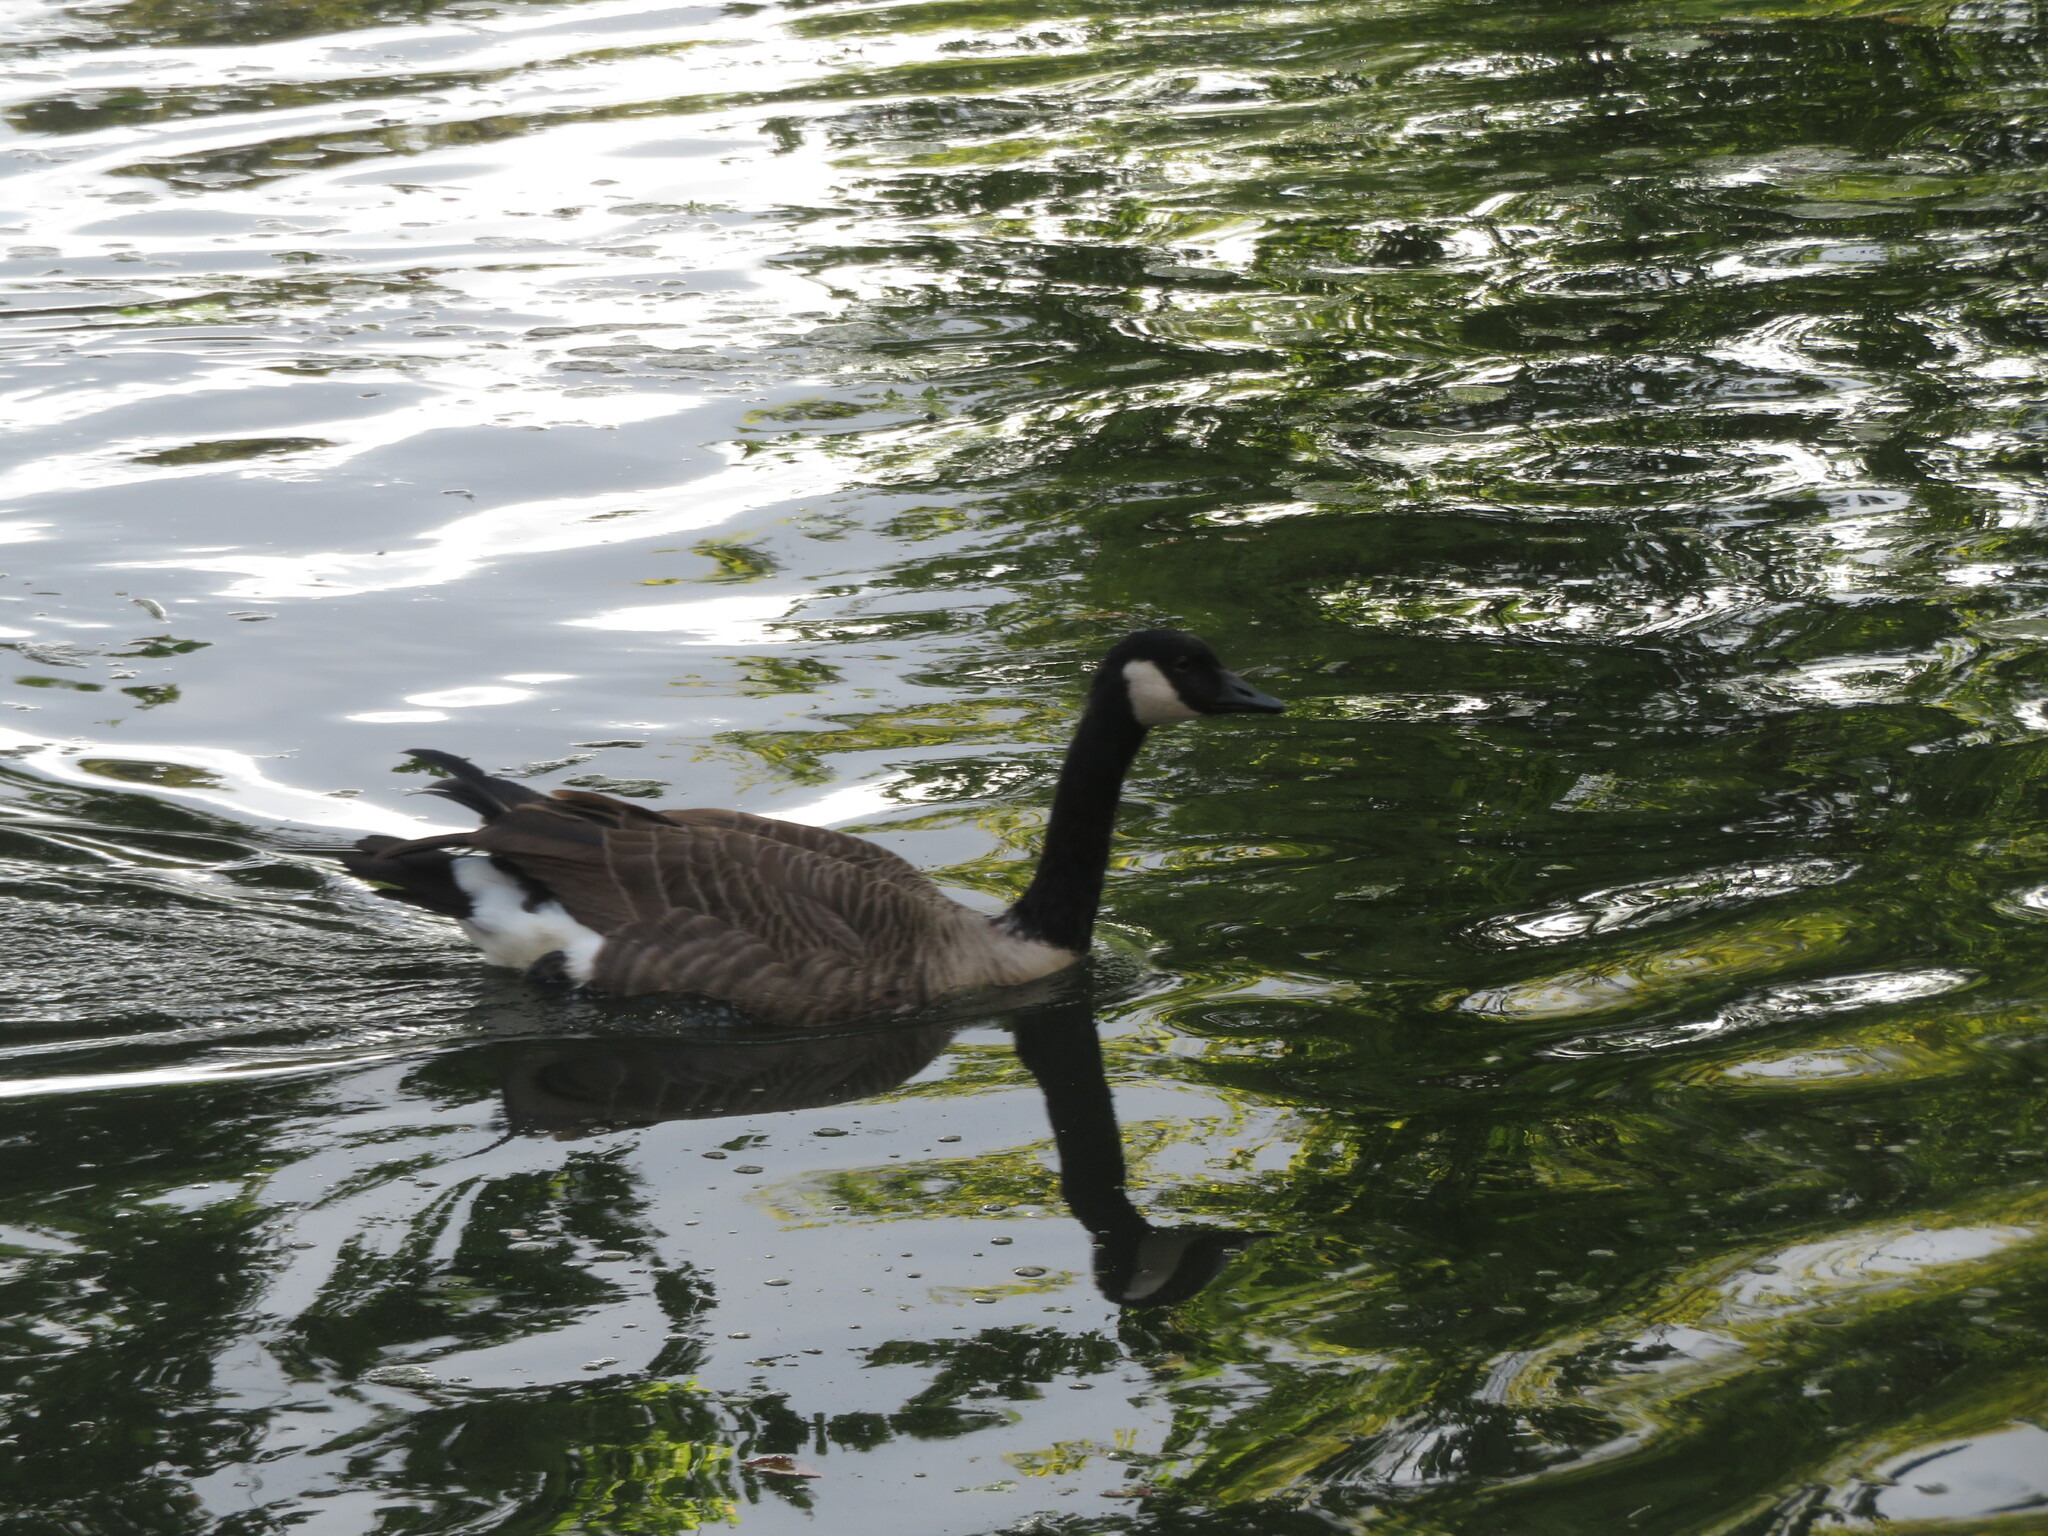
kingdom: Animalia
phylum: Chordata
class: Aves
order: Anseriformes
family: Anatidae
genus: Branta
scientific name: Branta canadensis
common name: Canada goose
